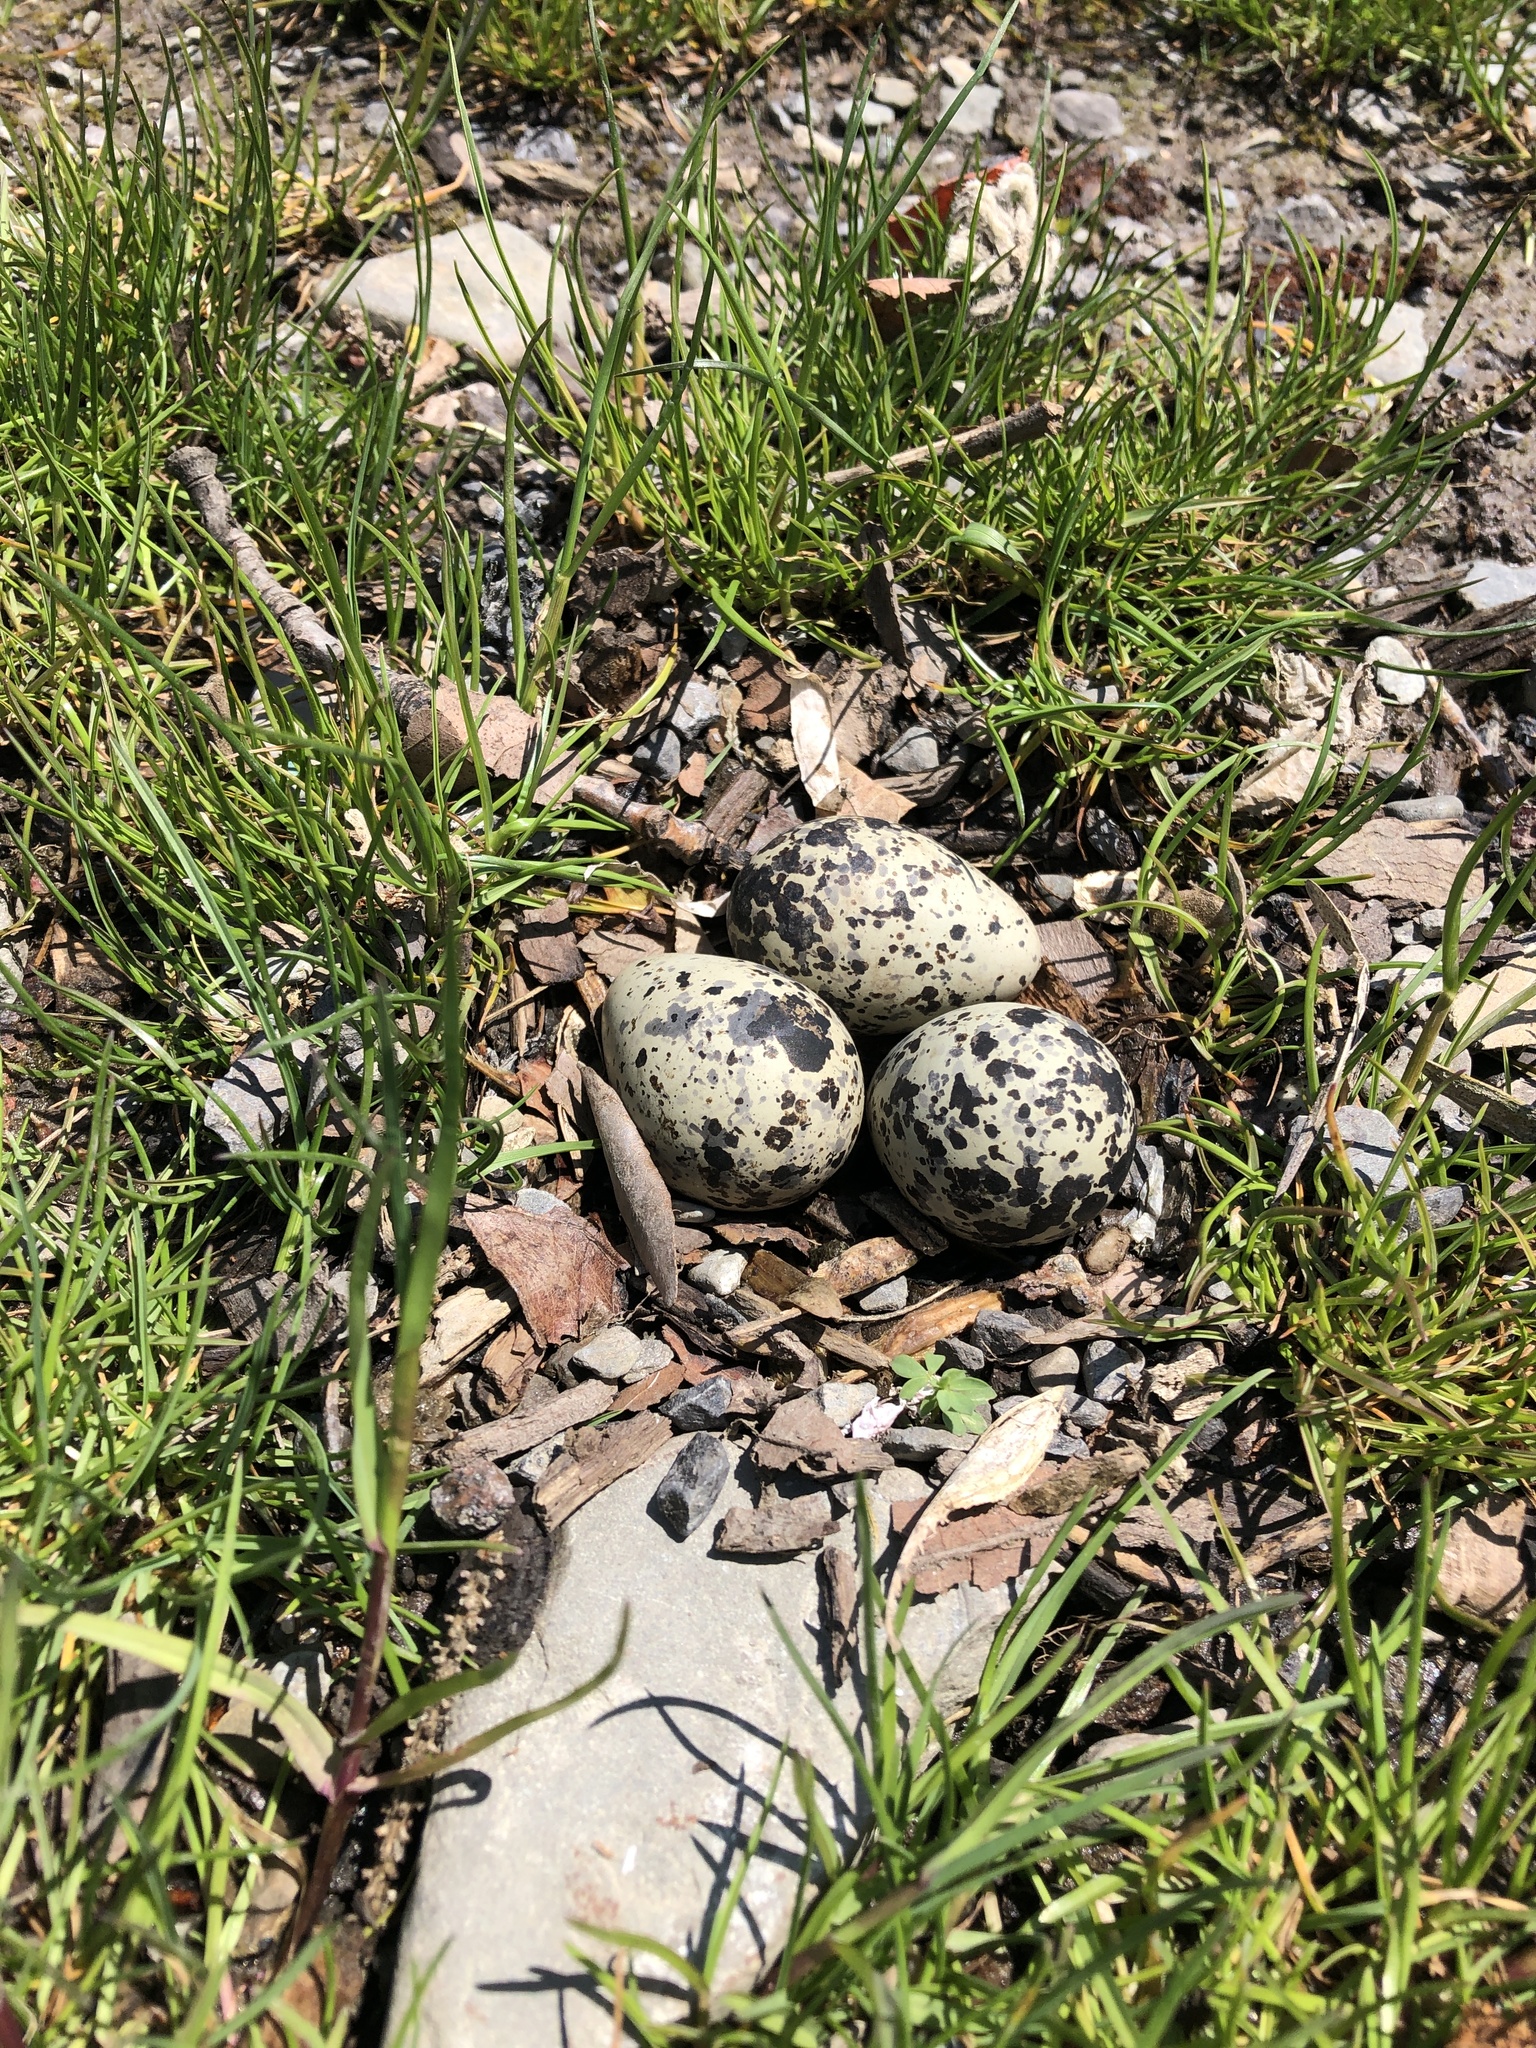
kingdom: Animalia
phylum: Chordata
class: Aves
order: Charadriiformes
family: Charadriidae
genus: Charadrius
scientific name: Charadrius vociferus
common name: Killdeer
